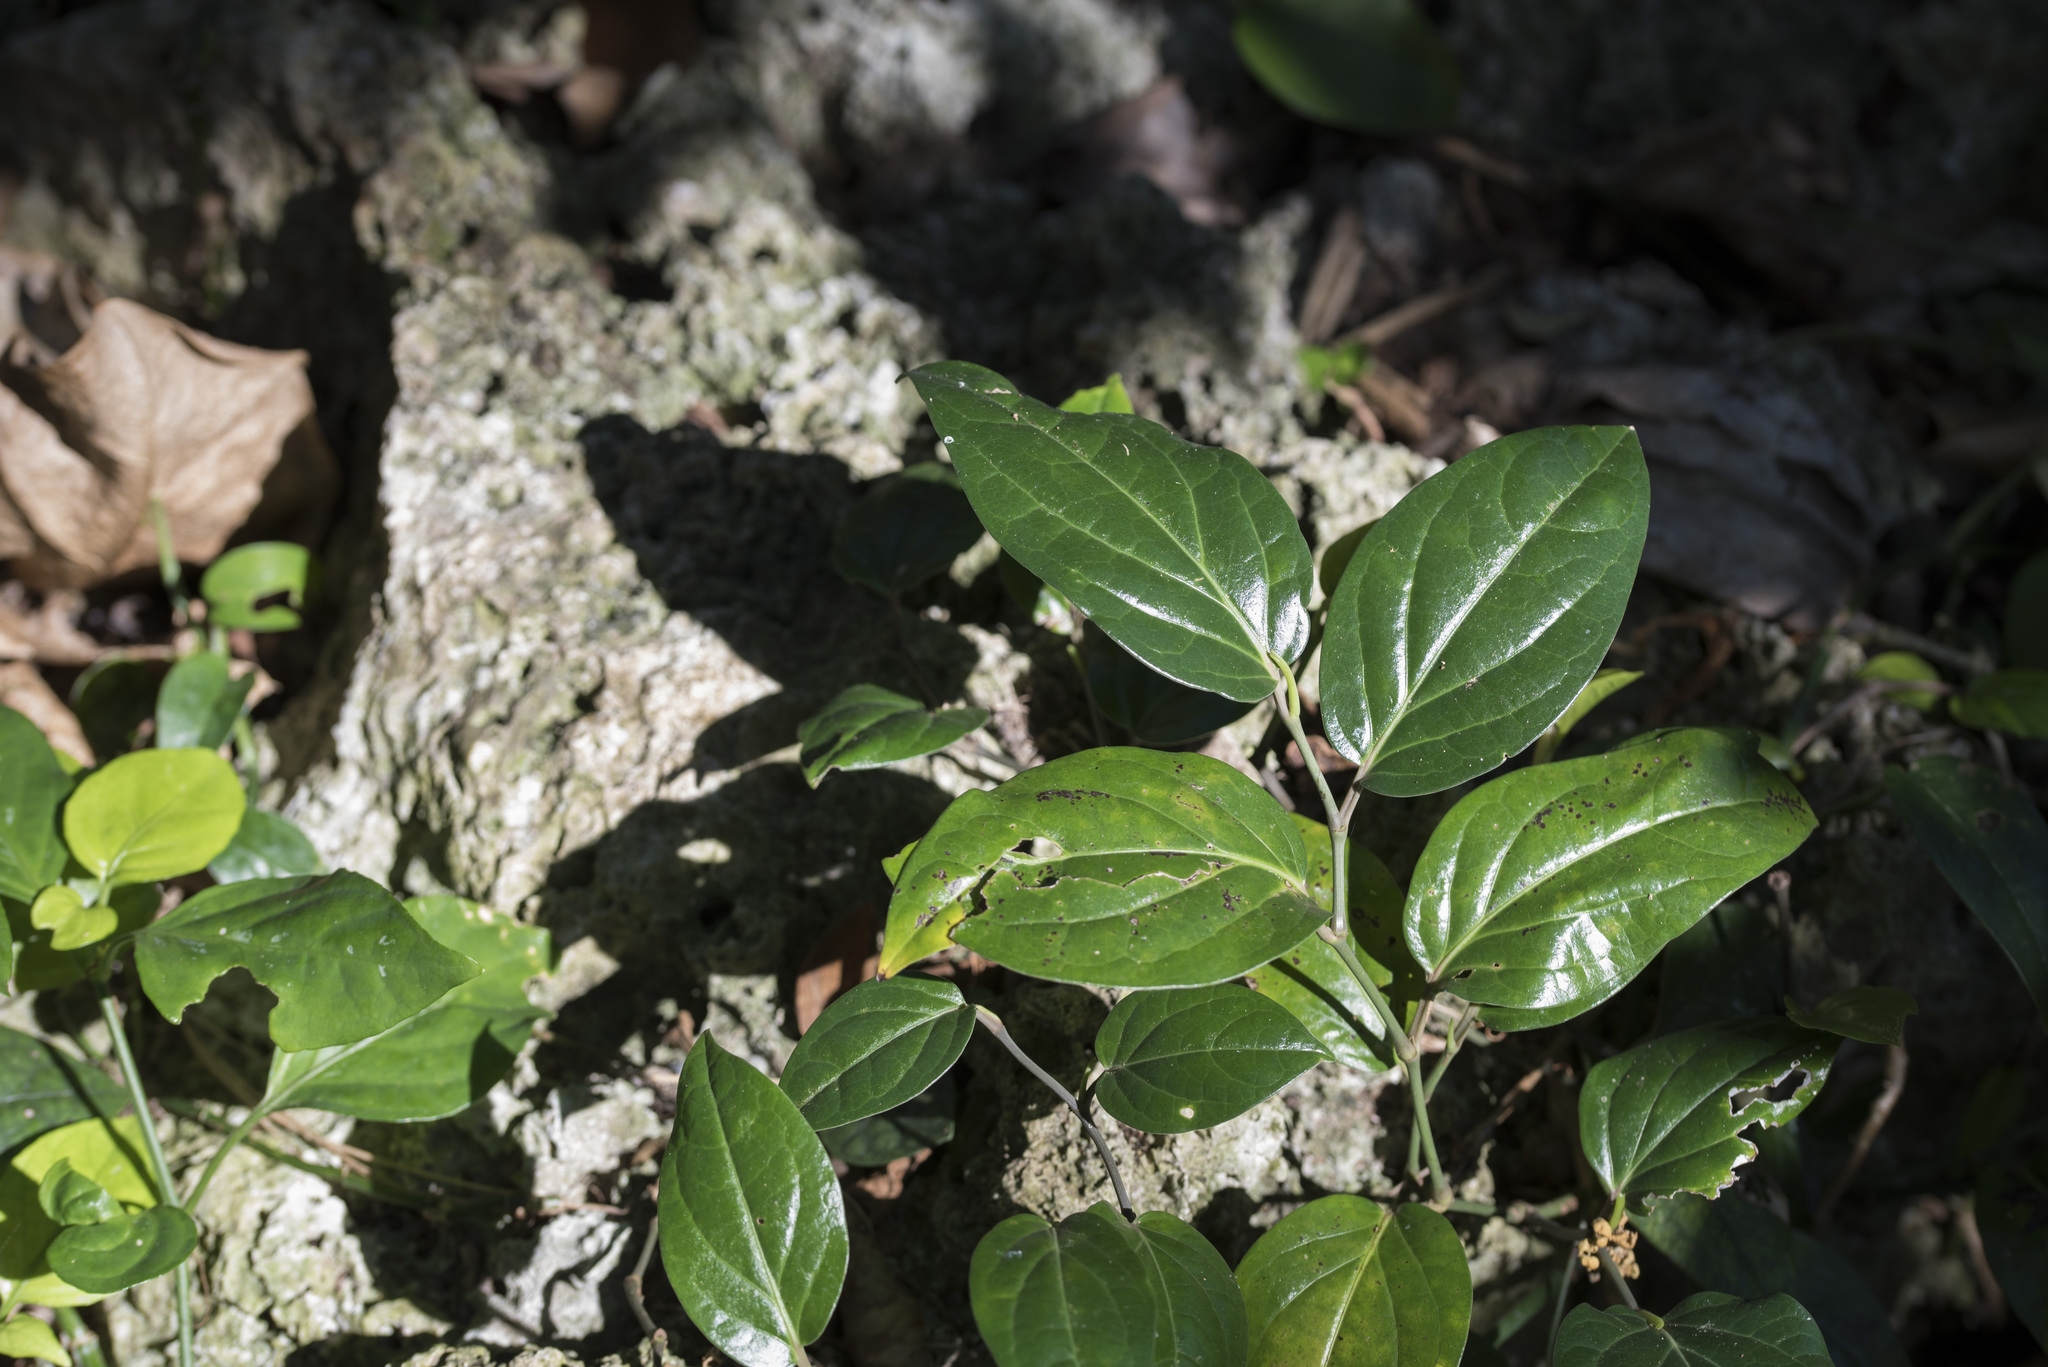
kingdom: Plantae
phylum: Tracheophyta
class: Magnoliopsida
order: Piperales
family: Piperaceae
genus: Piper
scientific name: Piper kawakamii
